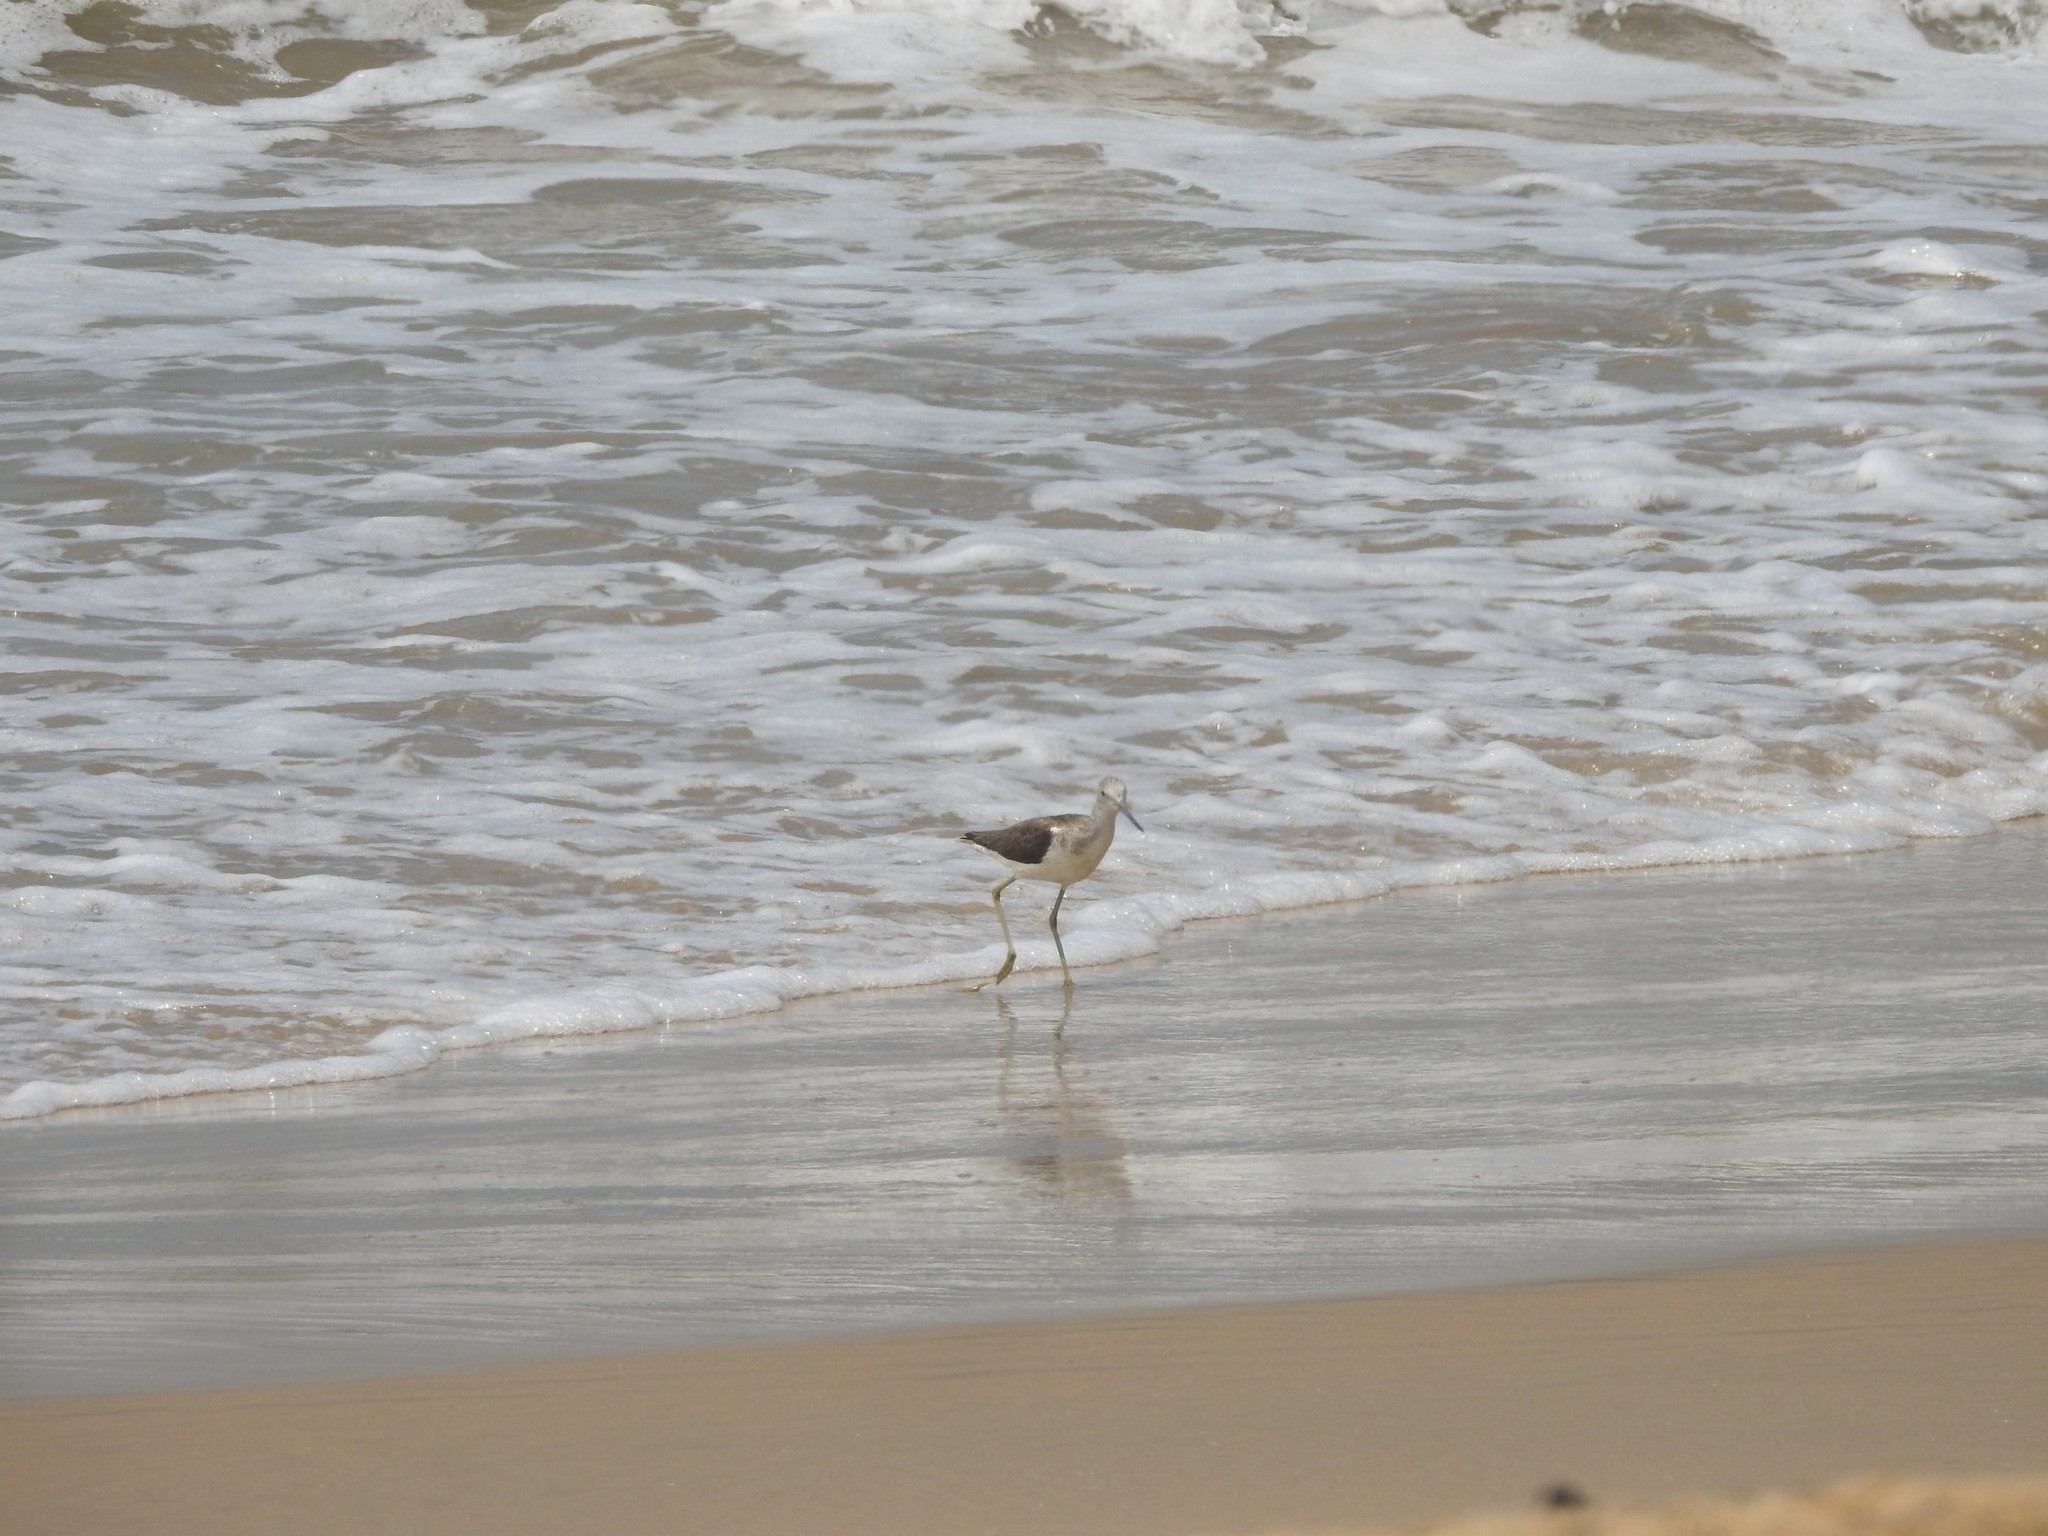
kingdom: Animalia
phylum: Chordata
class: Aves
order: Charadriiformes
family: Scolopacidae
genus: Tringa
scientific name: Tringa nebularia
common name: Common greenshank
